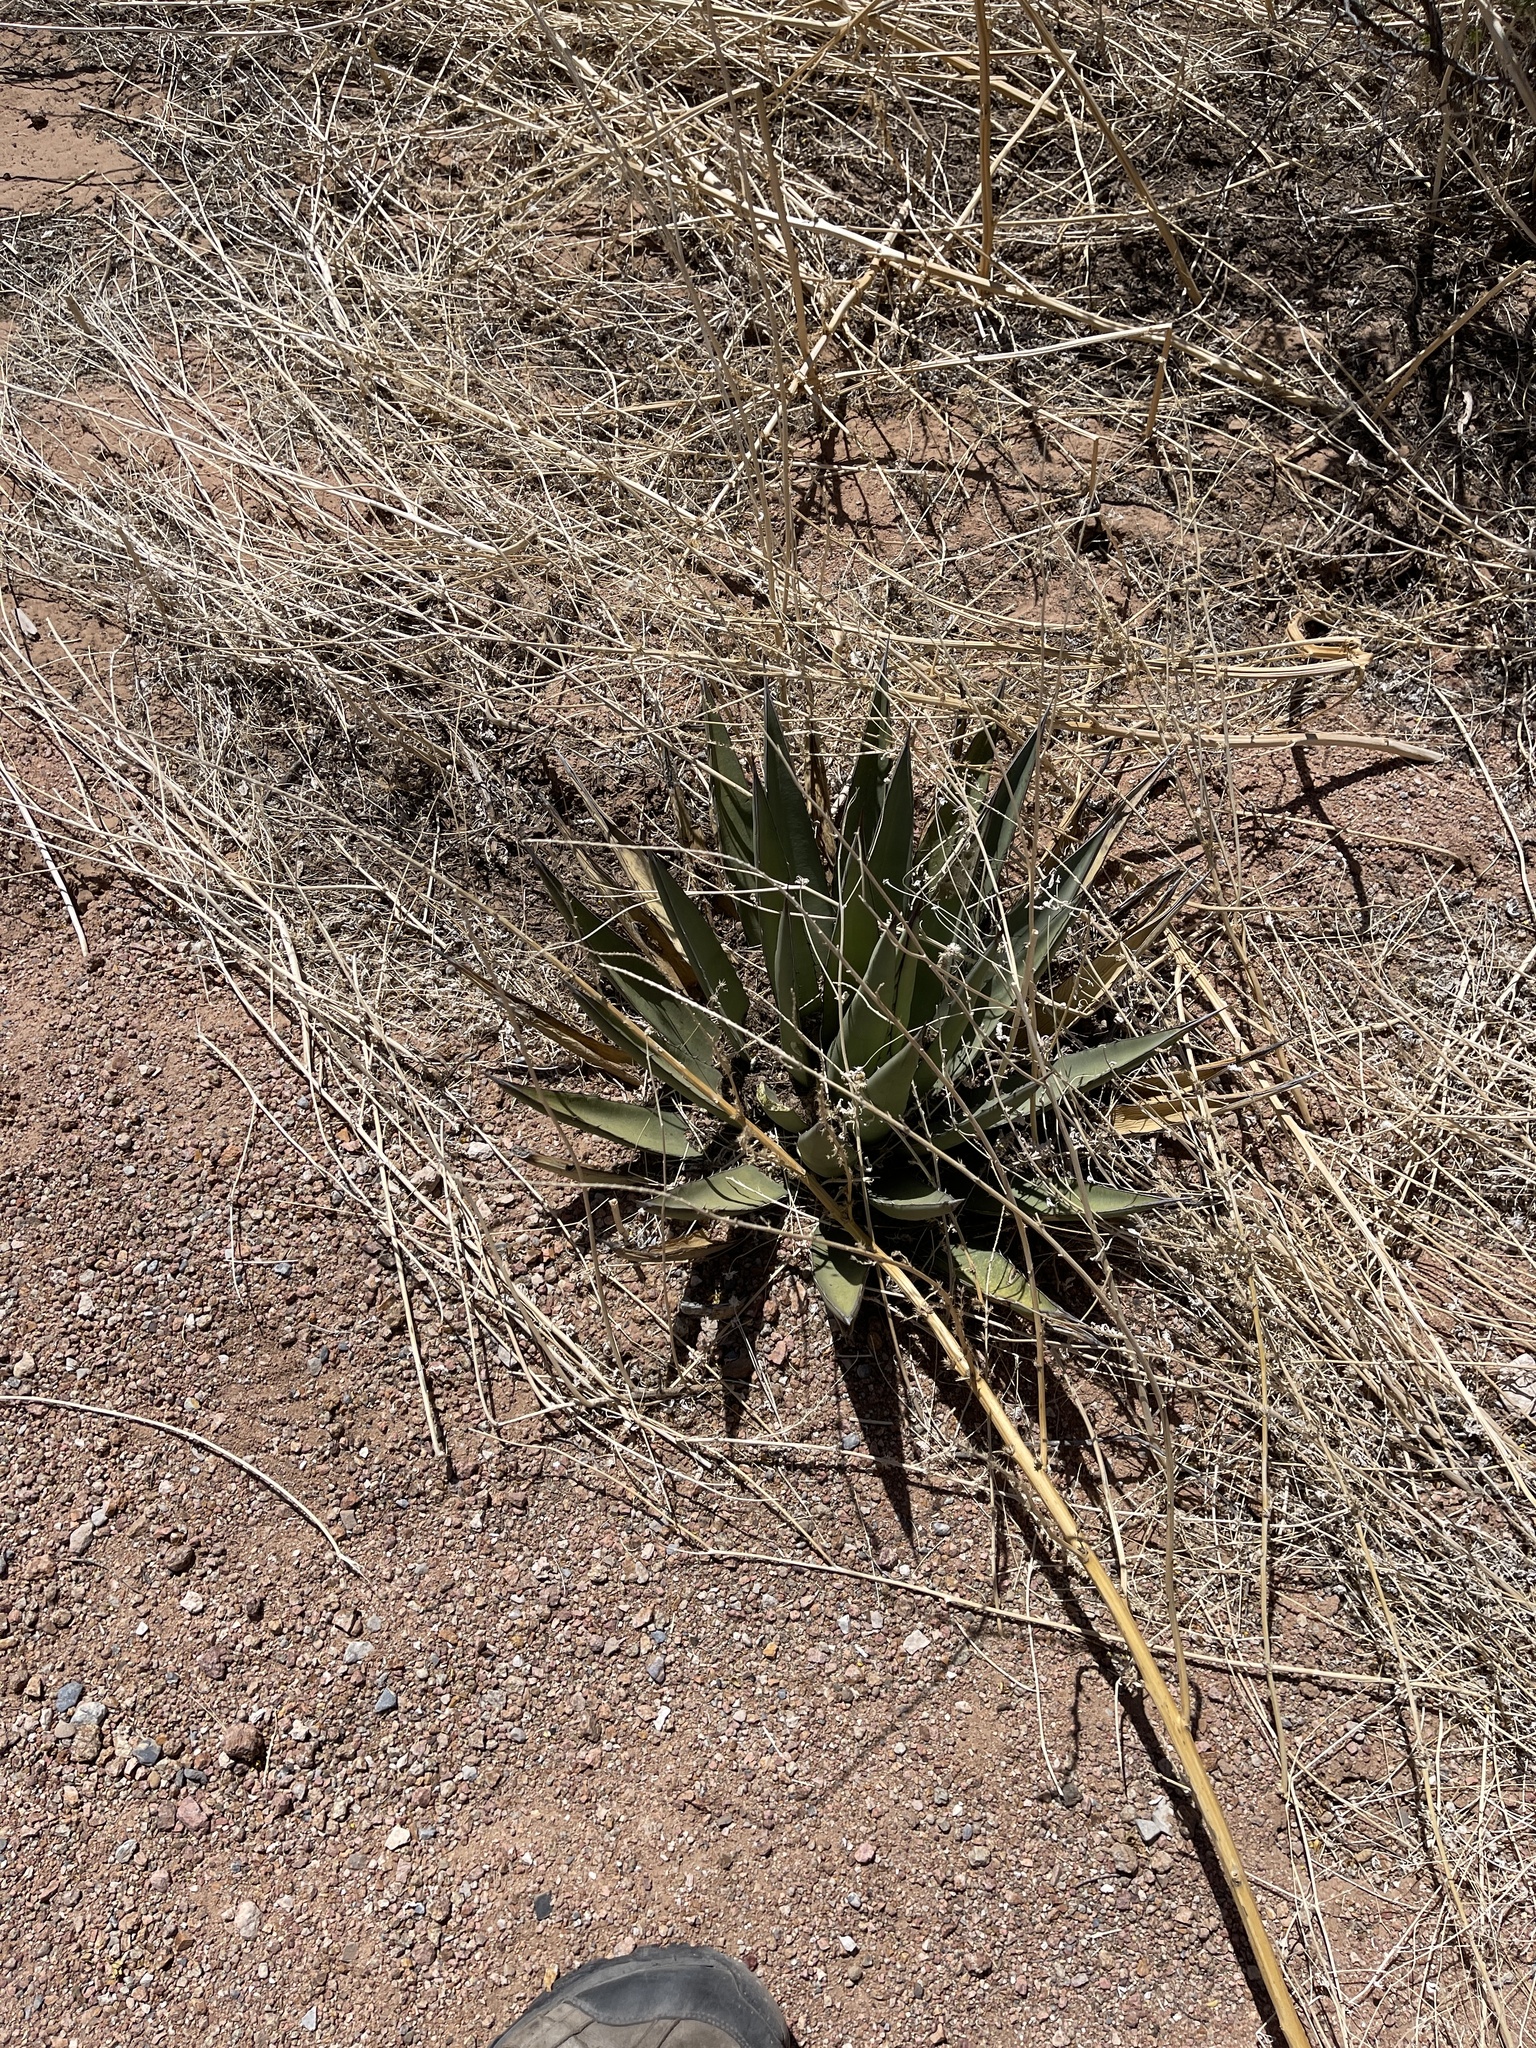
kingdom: Plantae
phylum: Tracheophyta
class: Liliopsida
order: Asparagales
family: Asparagaceae
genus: Agave
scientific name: Agave lechuguilla
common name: Lecheguilla agave
